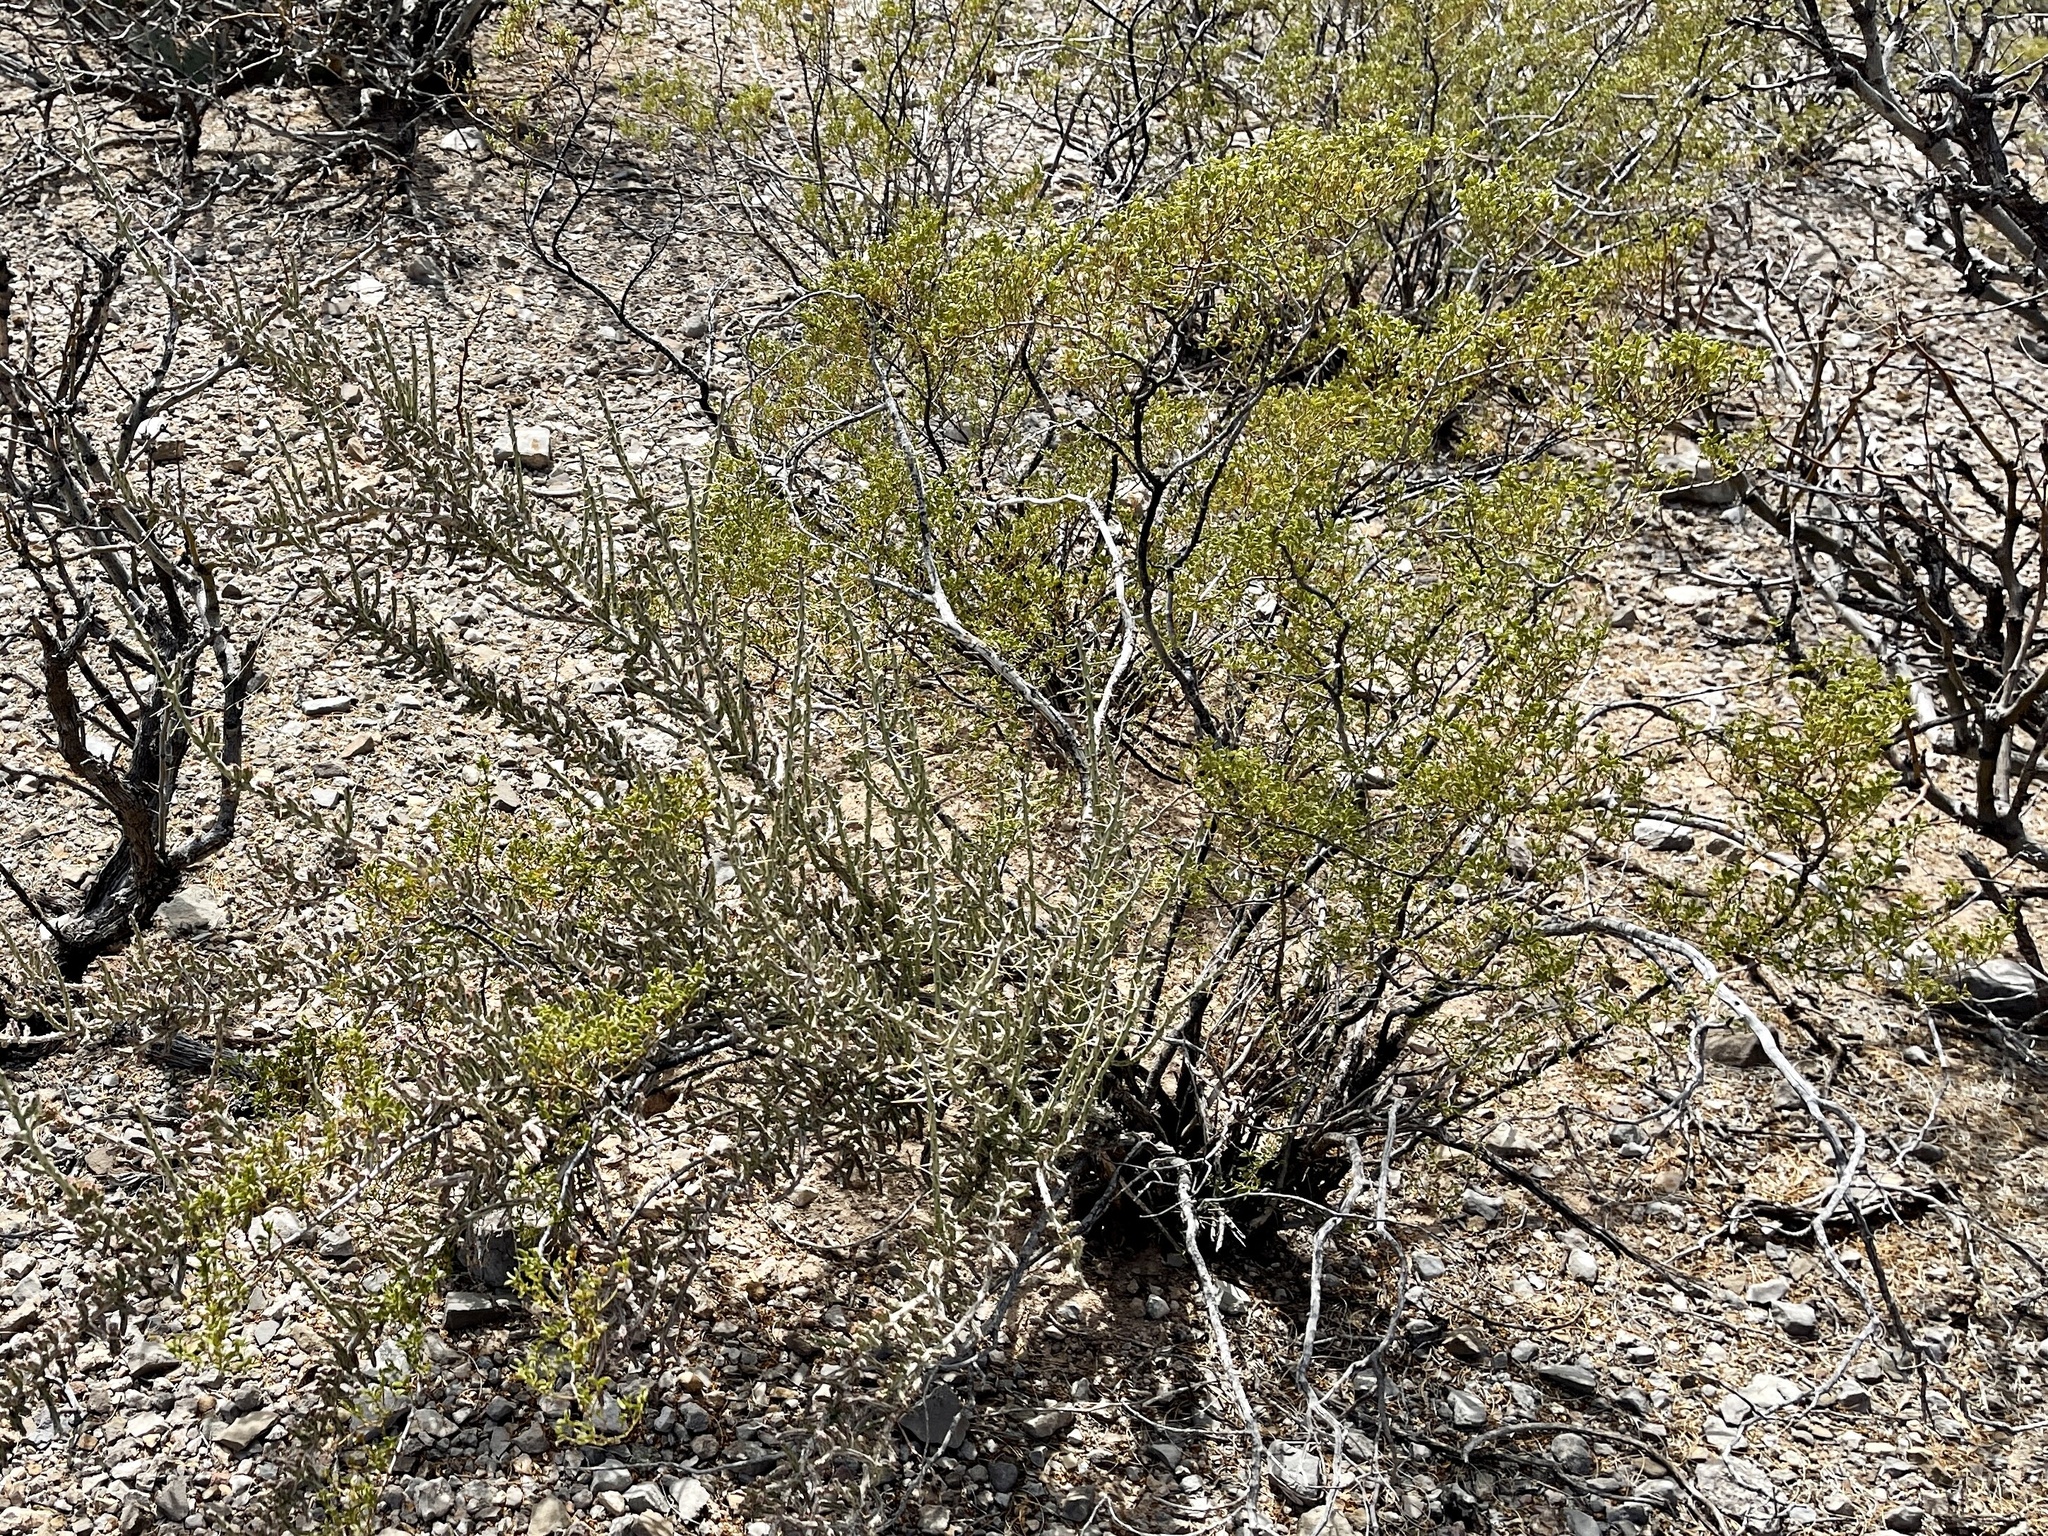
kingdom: Plantae
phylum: Tracheophyta
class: Magnoliopsida
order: Zygophyllales
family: Zygophyllaceae
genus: Larrea
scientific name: Larrea tridentata
